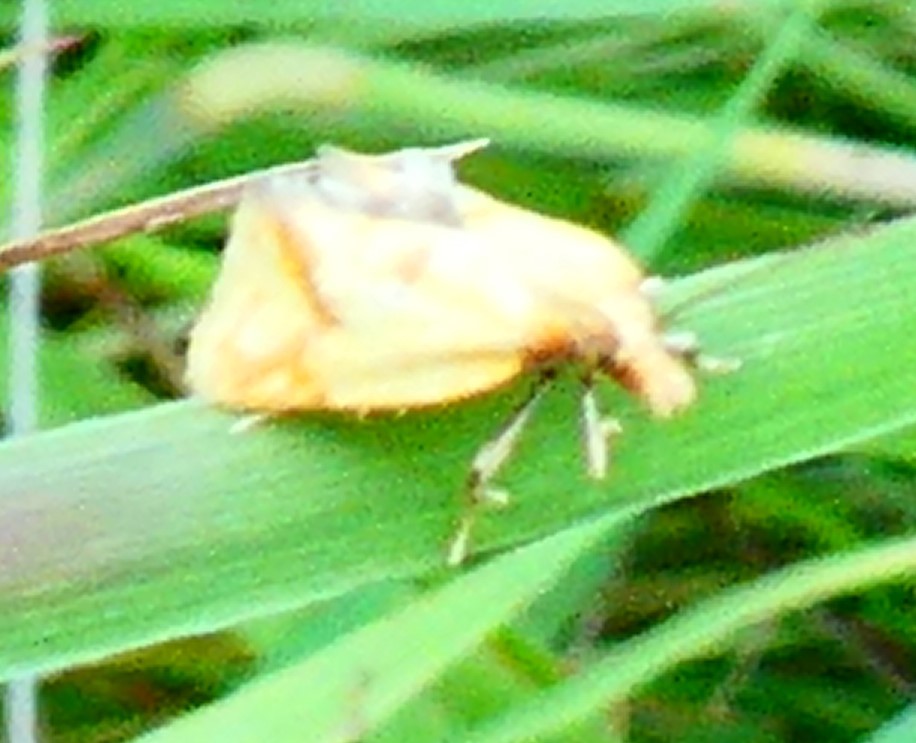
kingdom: Animalia
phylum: Arthropoda
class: Insecta
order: Lepidoptera
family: Tortricidae
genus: Agapeta
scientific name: Agapeta hamana
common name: Common yellow conch
